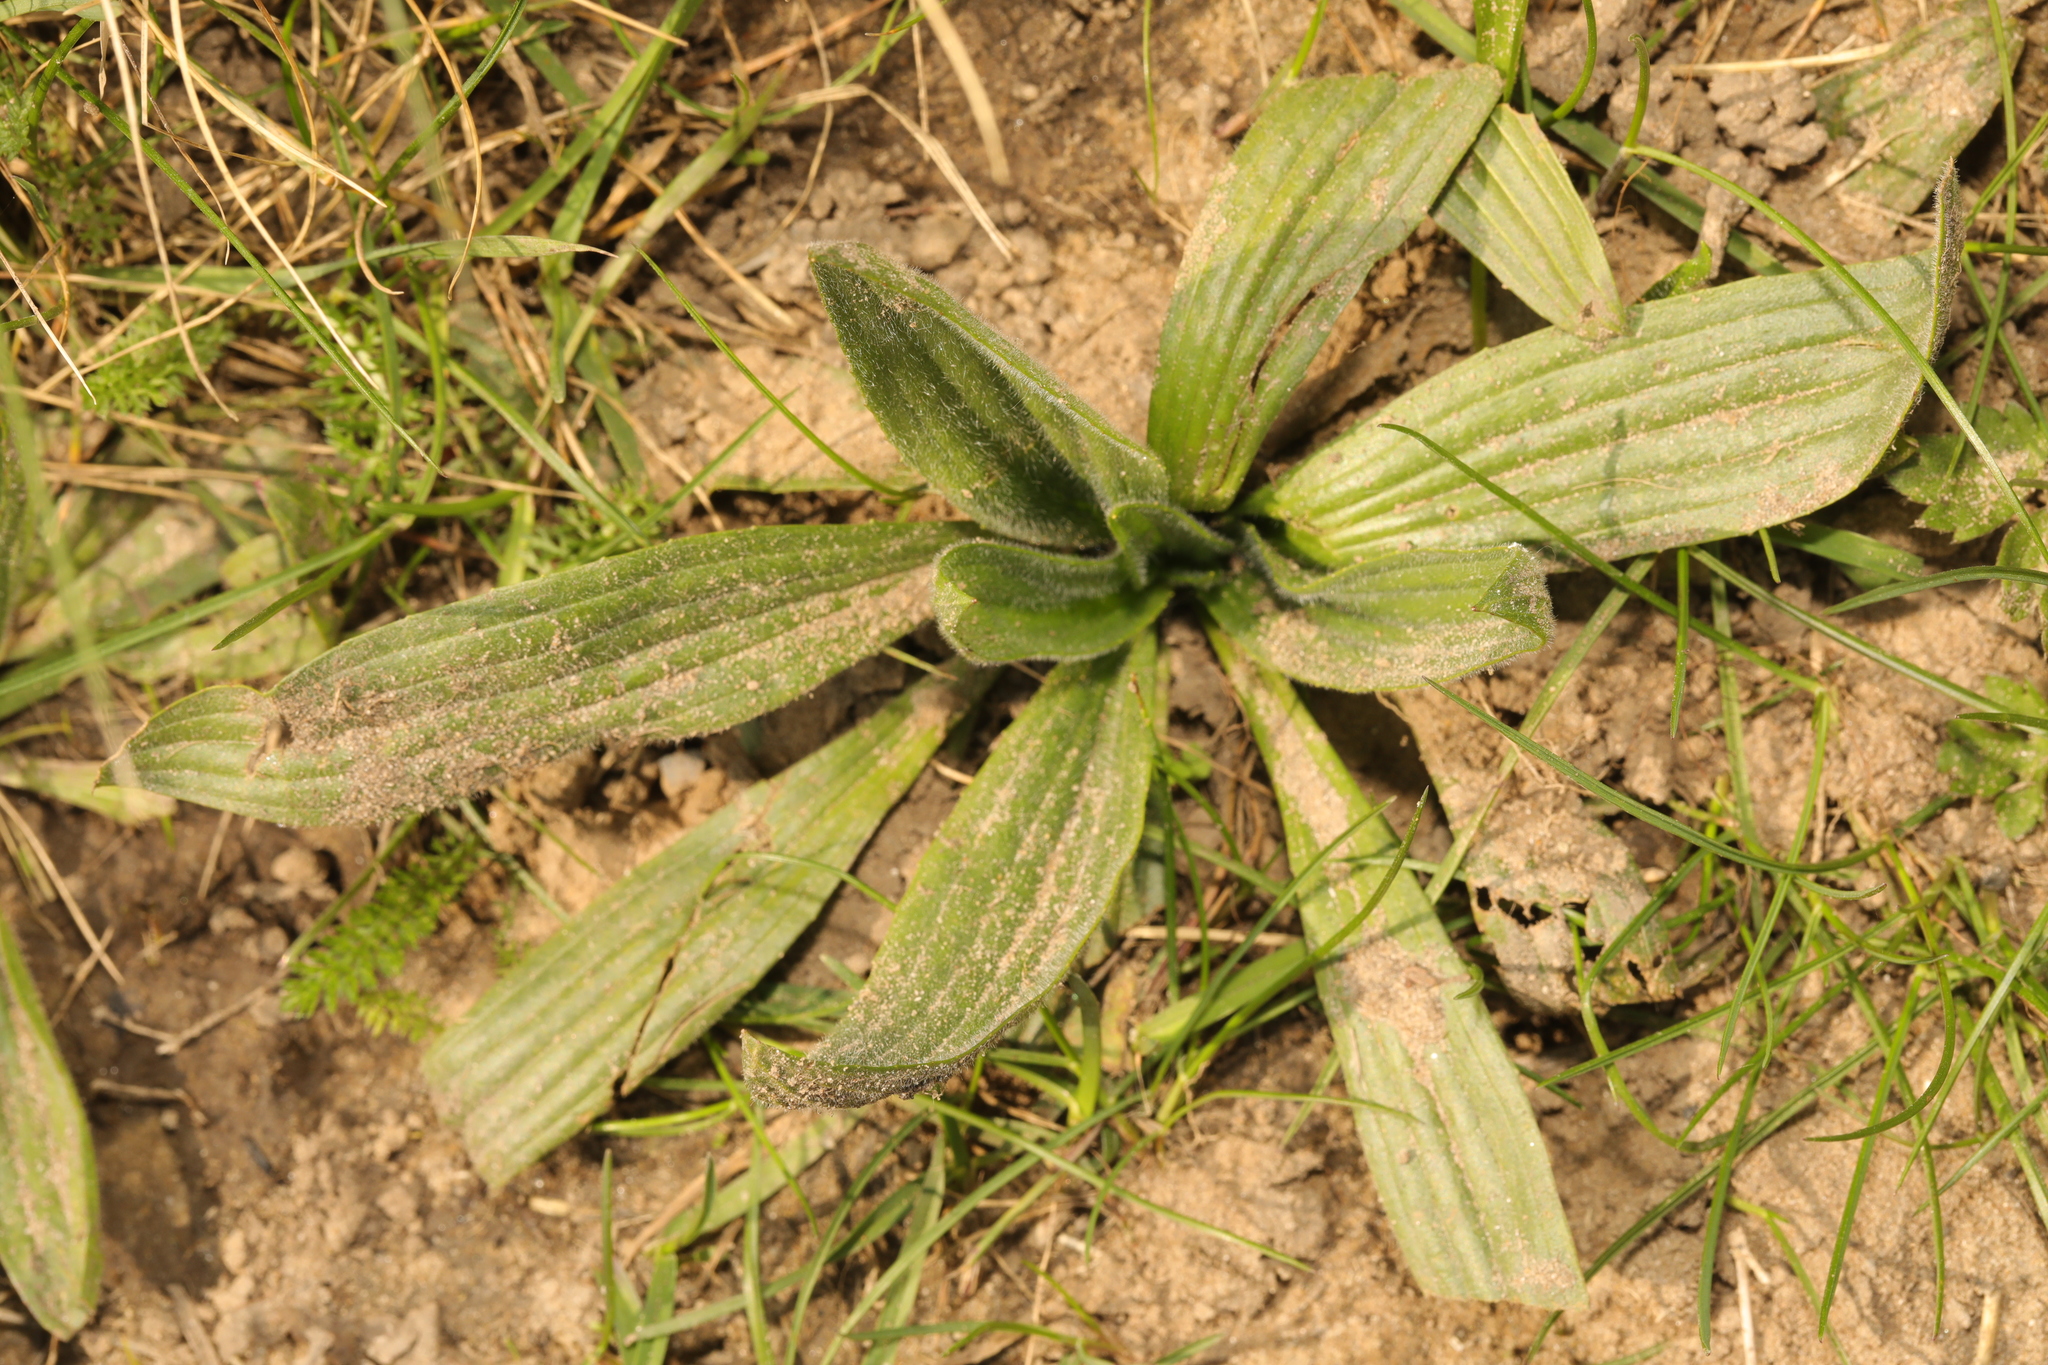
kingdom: Plantae
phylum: Tracheophyta
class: Magnoliopsida
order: Lamiales
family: Plantaginaceae
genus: Plantago
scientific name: Plantago lanceolata
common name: Ribwort plantain
